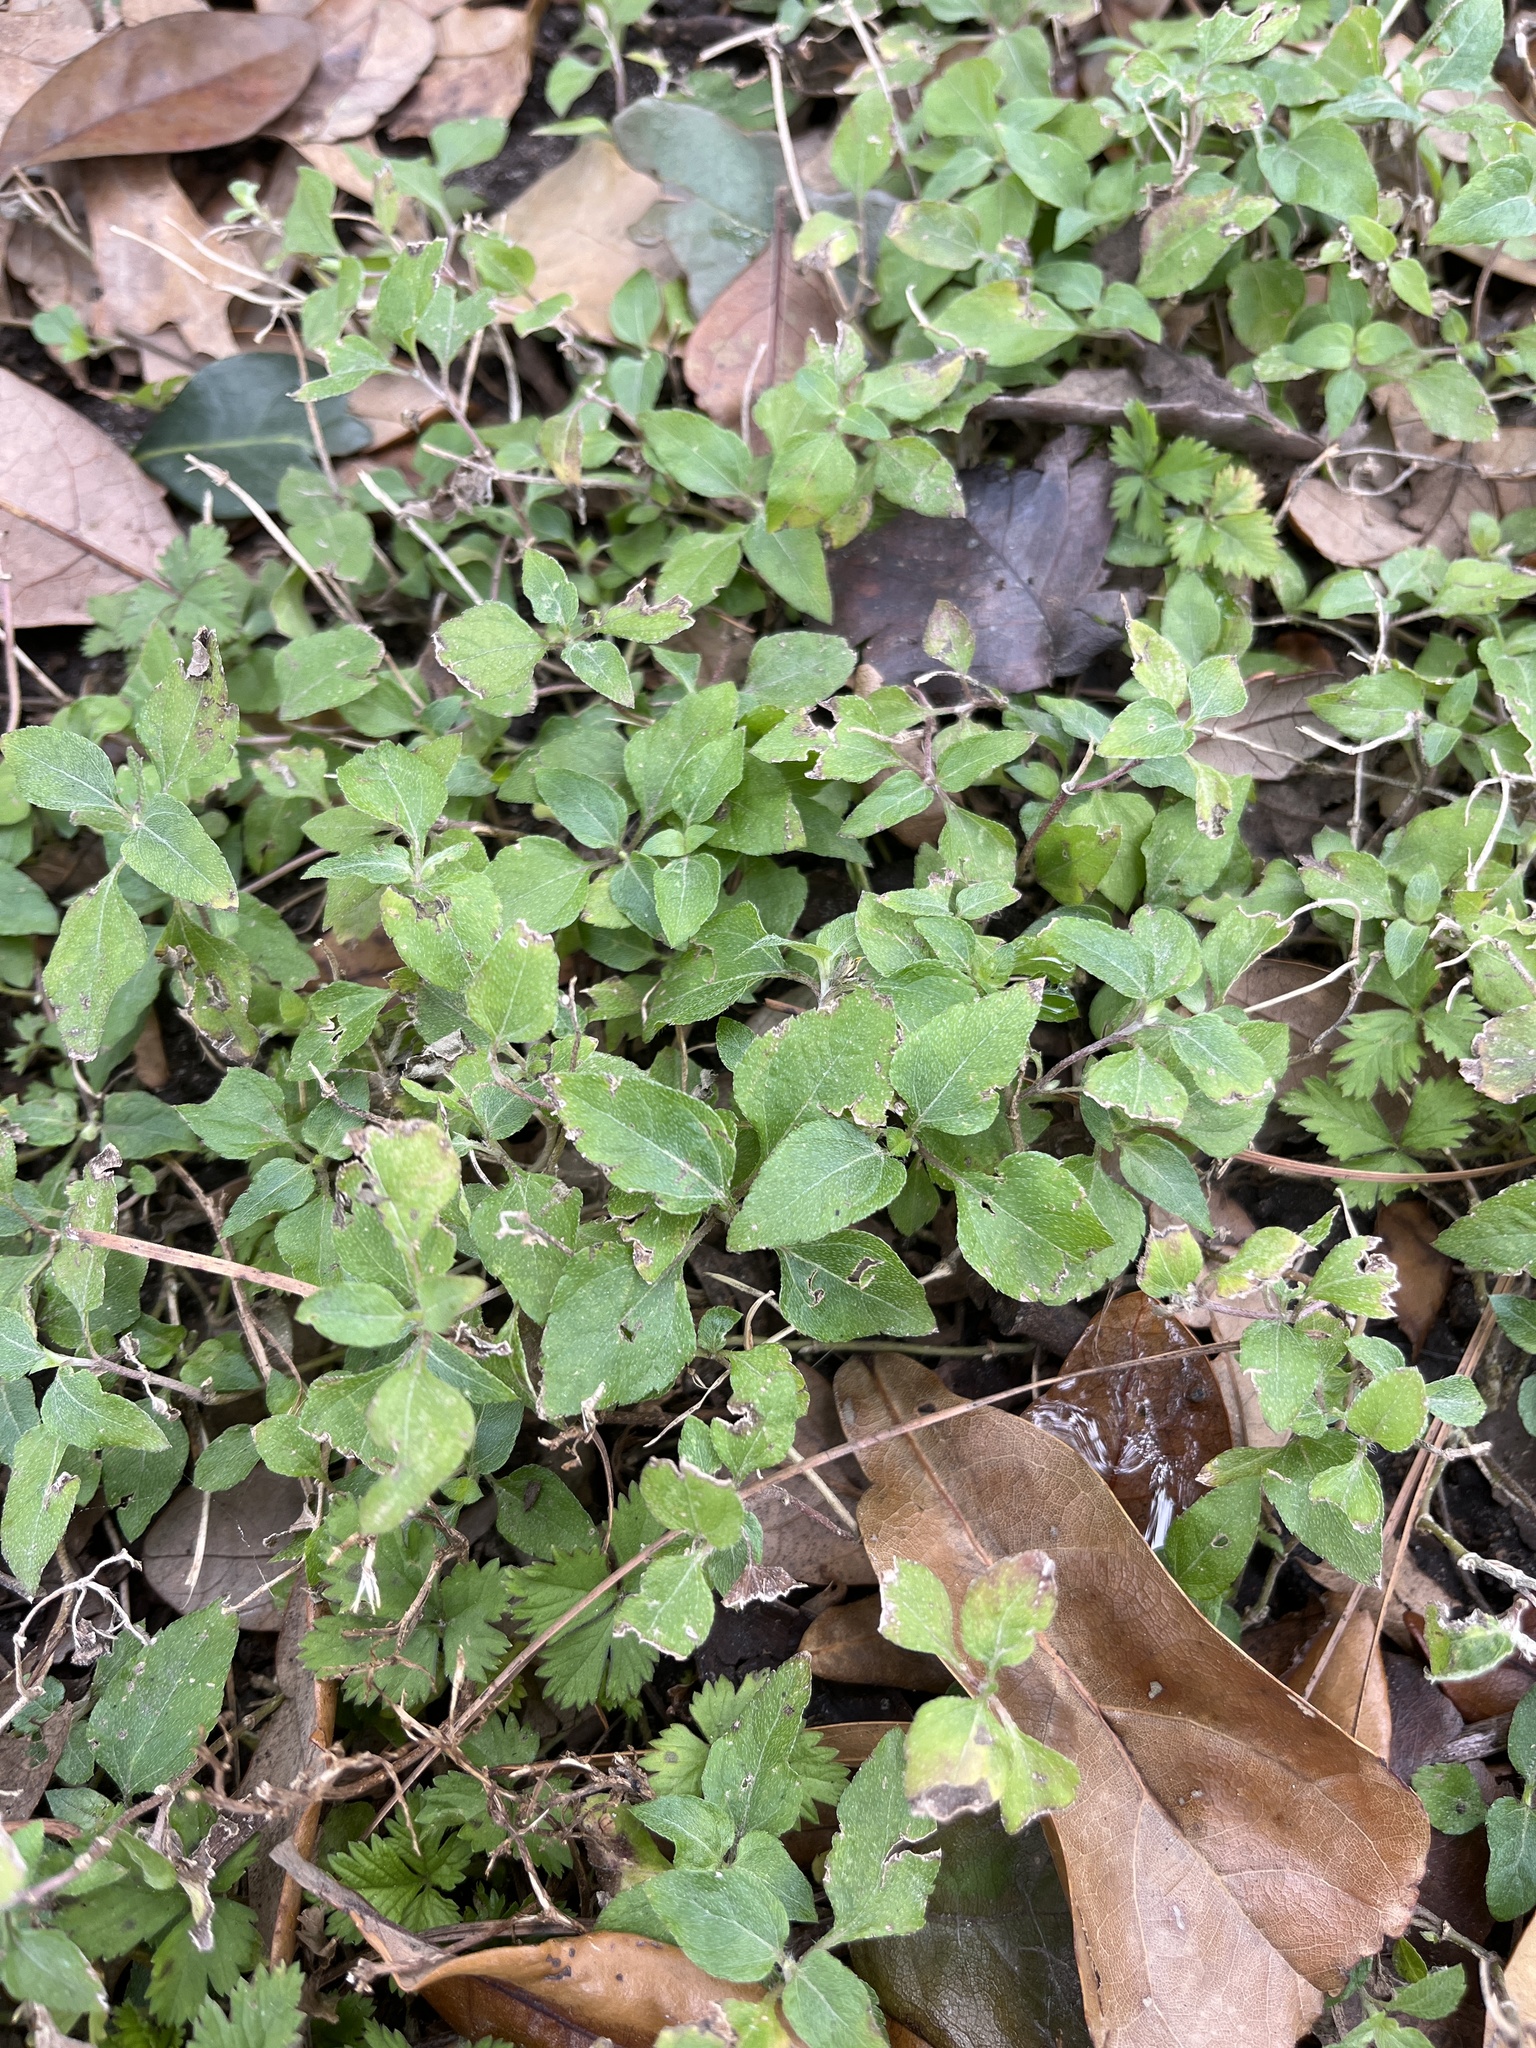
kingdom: Plantae
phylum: Tracheophyta
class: Magnoliopsida
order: Asterales
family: Asteraceae
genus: Calyptocarpus
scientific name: Calyptocarpus vialis
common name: Straggler daisy
